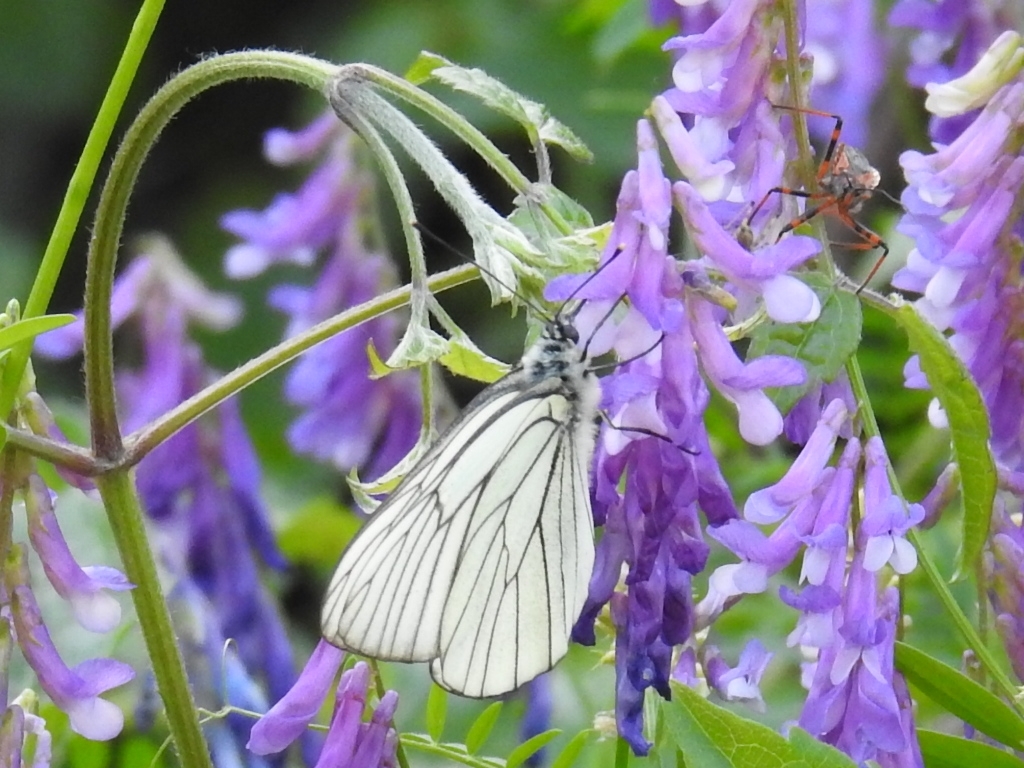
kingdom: Animalia
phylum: Arthropoda
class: Insecta
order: Lepidoptera
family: Pieridae
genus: Aporia
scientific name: Aporia crataegi
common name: Black-veined white
